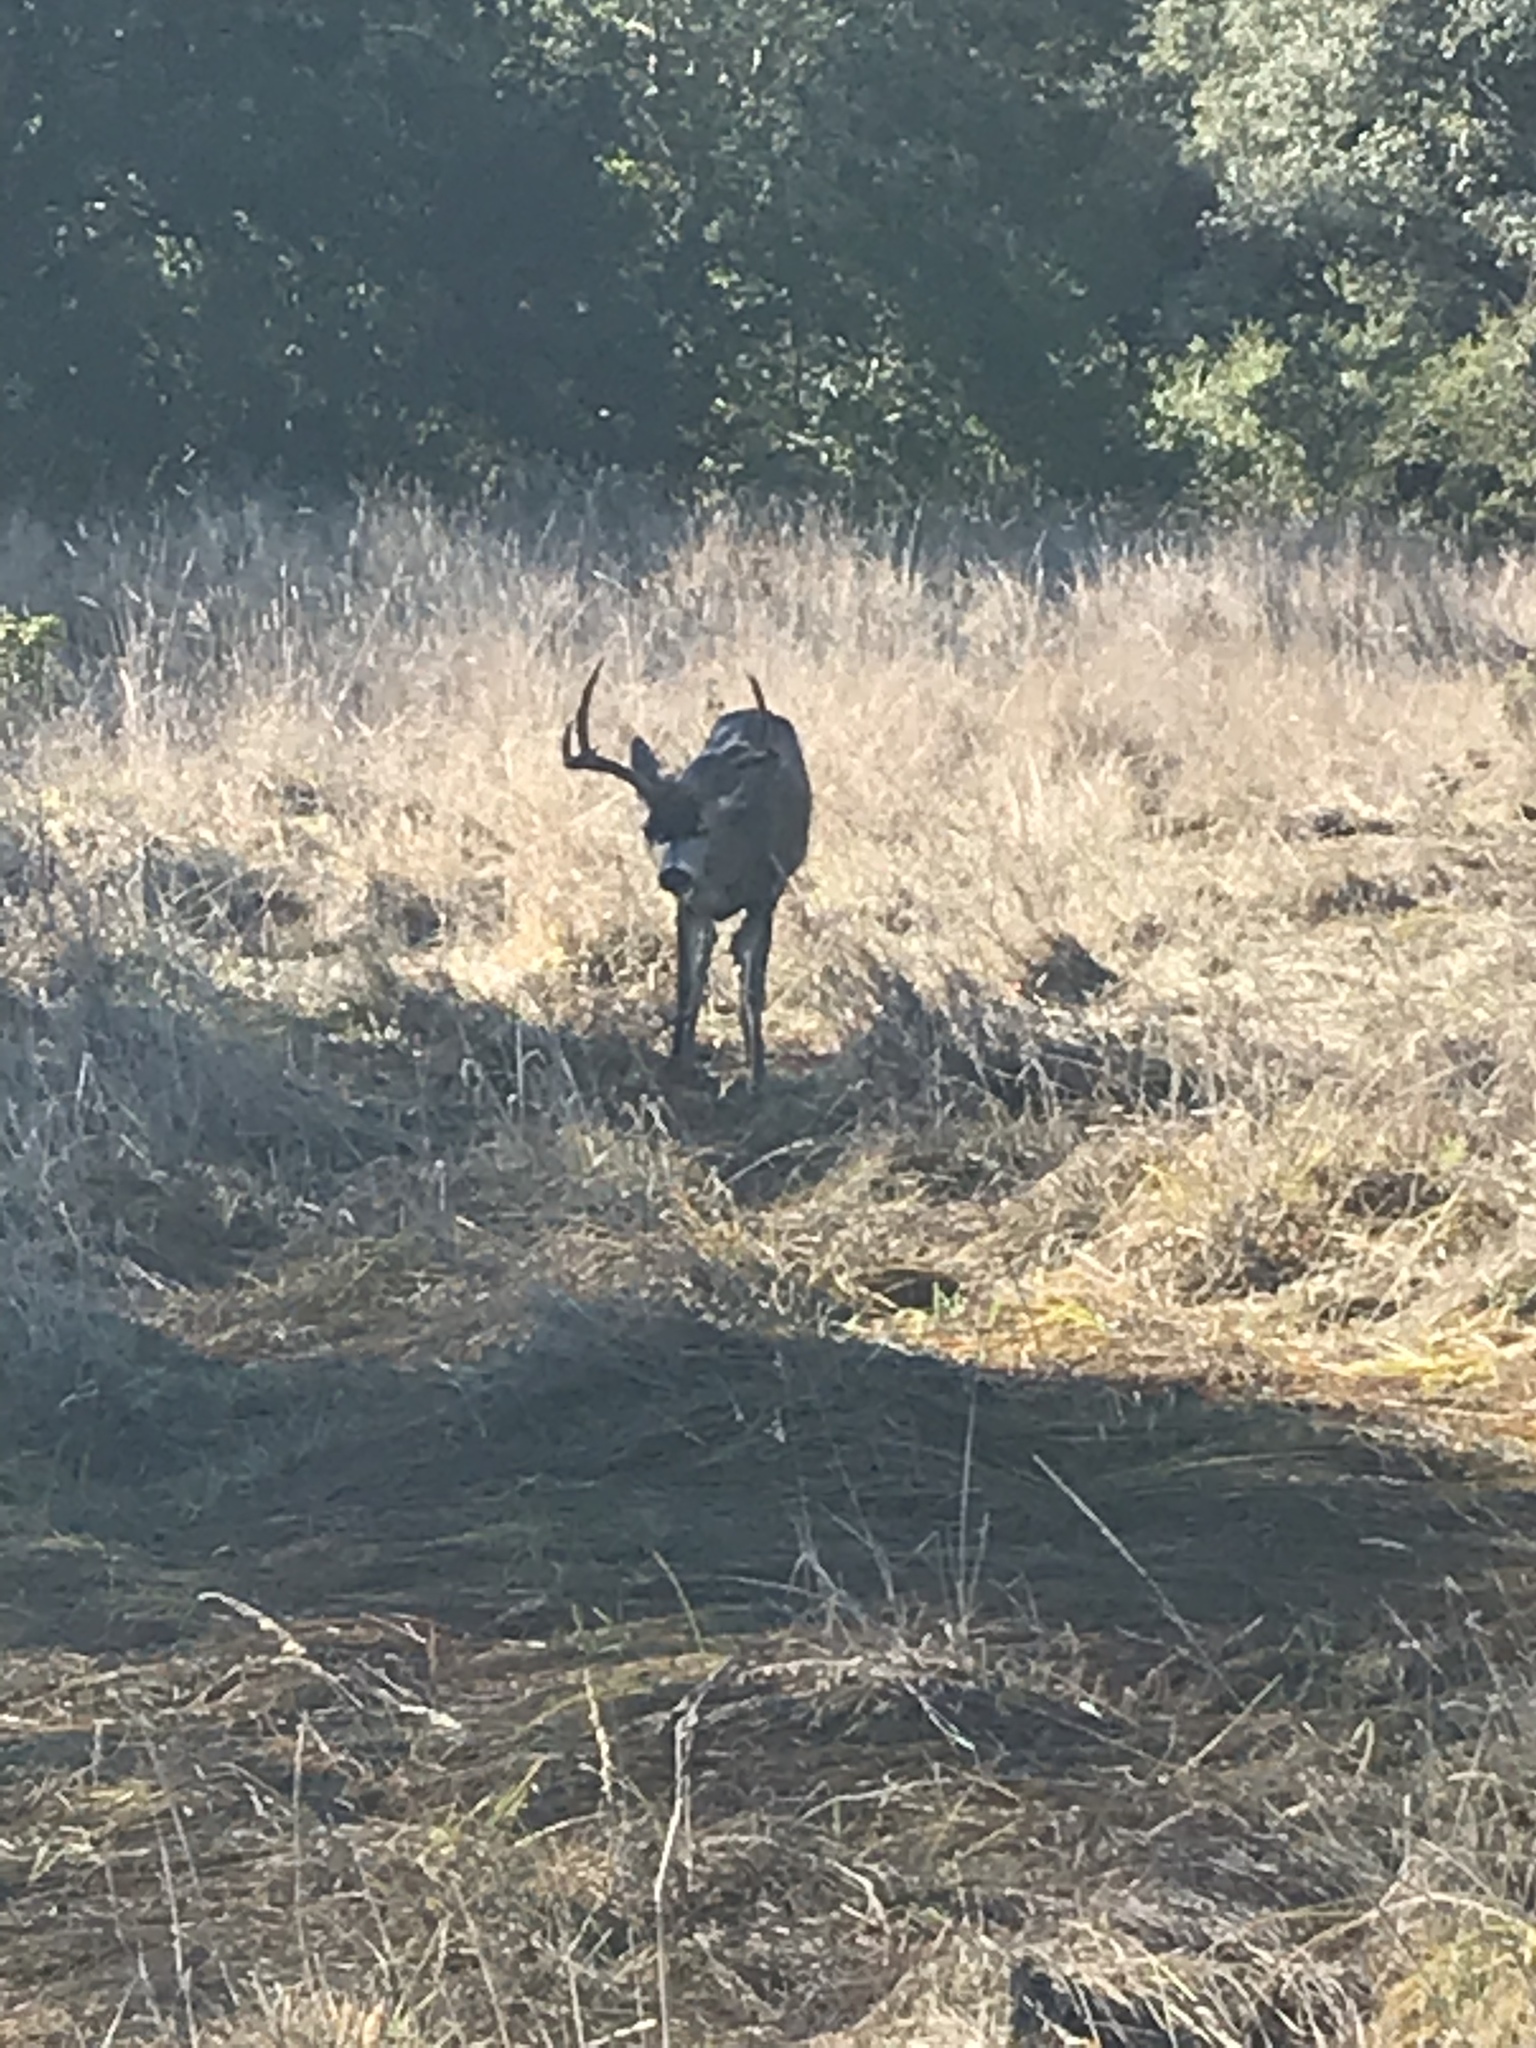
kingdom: Animalia
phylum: Chordata
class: Mammalia
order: Artiodactyla
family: Cervidae
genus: Odocoileus
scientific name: Odocoileus hemionus
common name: Mule deer
